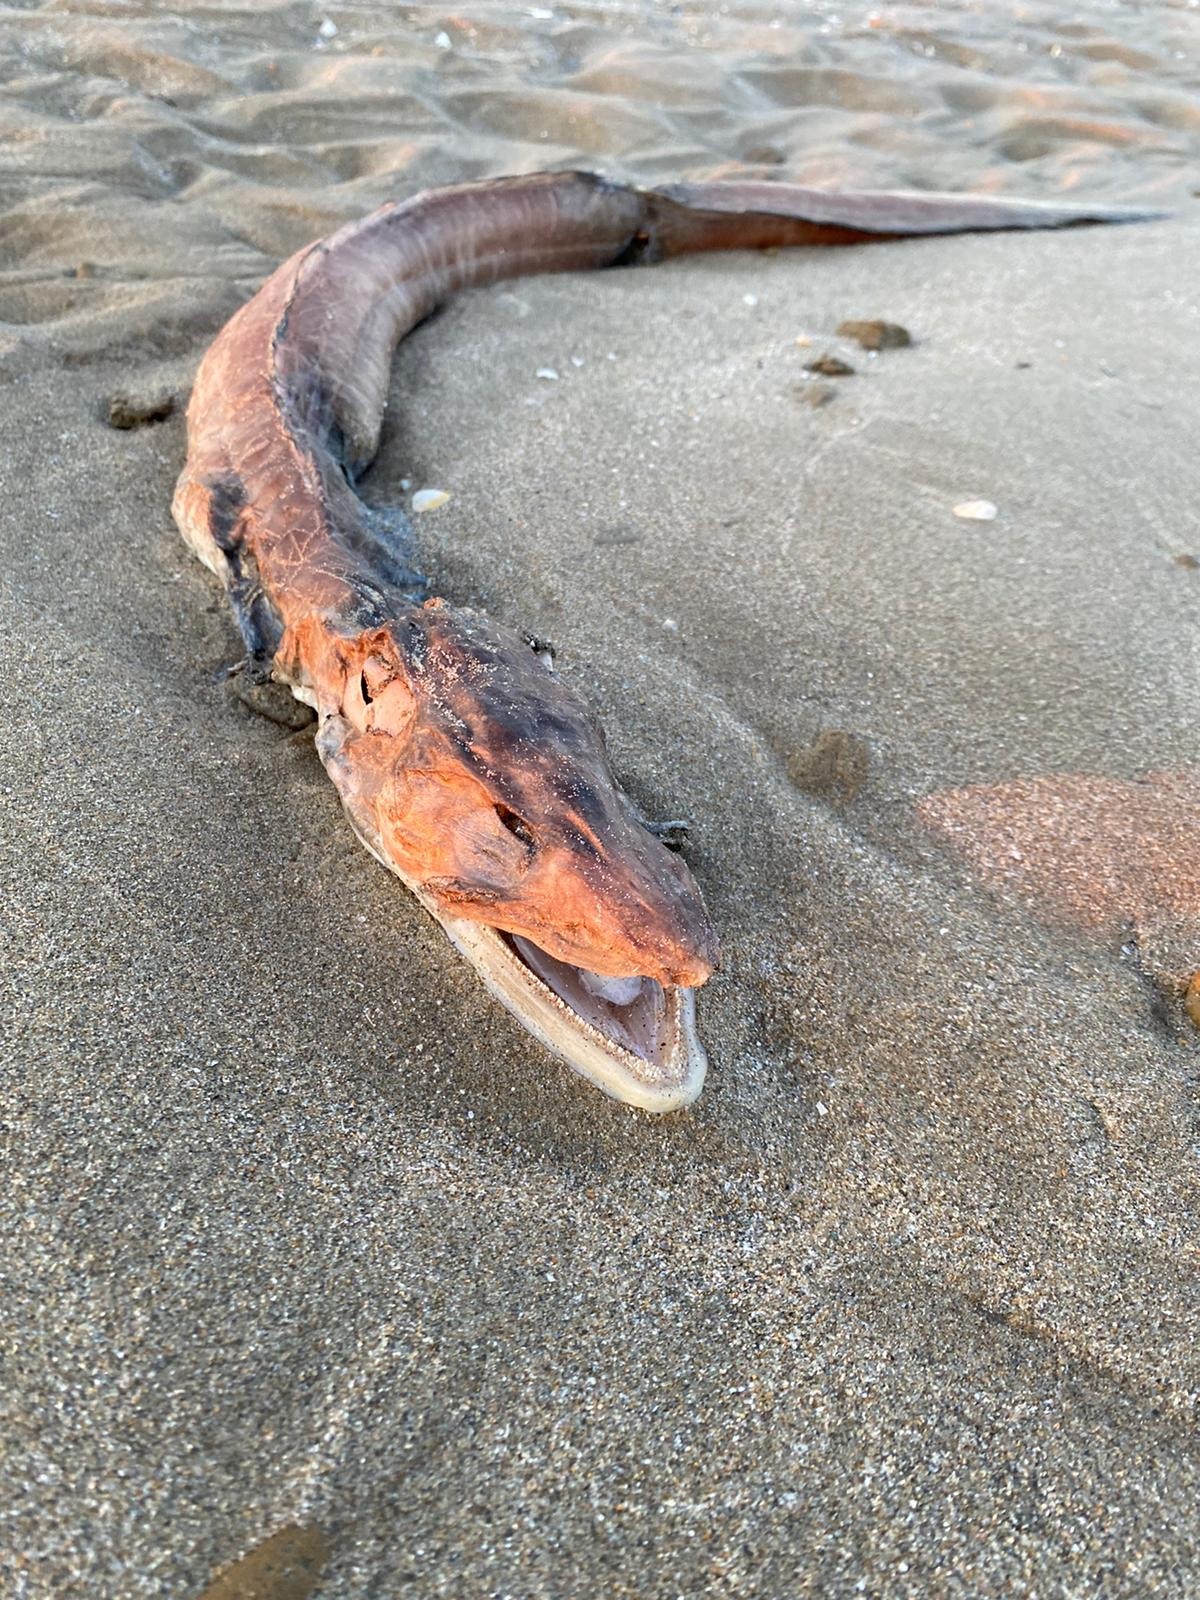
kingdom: Animalia
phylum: Chordata
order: Anguilliformes
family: Congridae
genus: Conger
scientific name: Conger conger
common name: Conger eel
